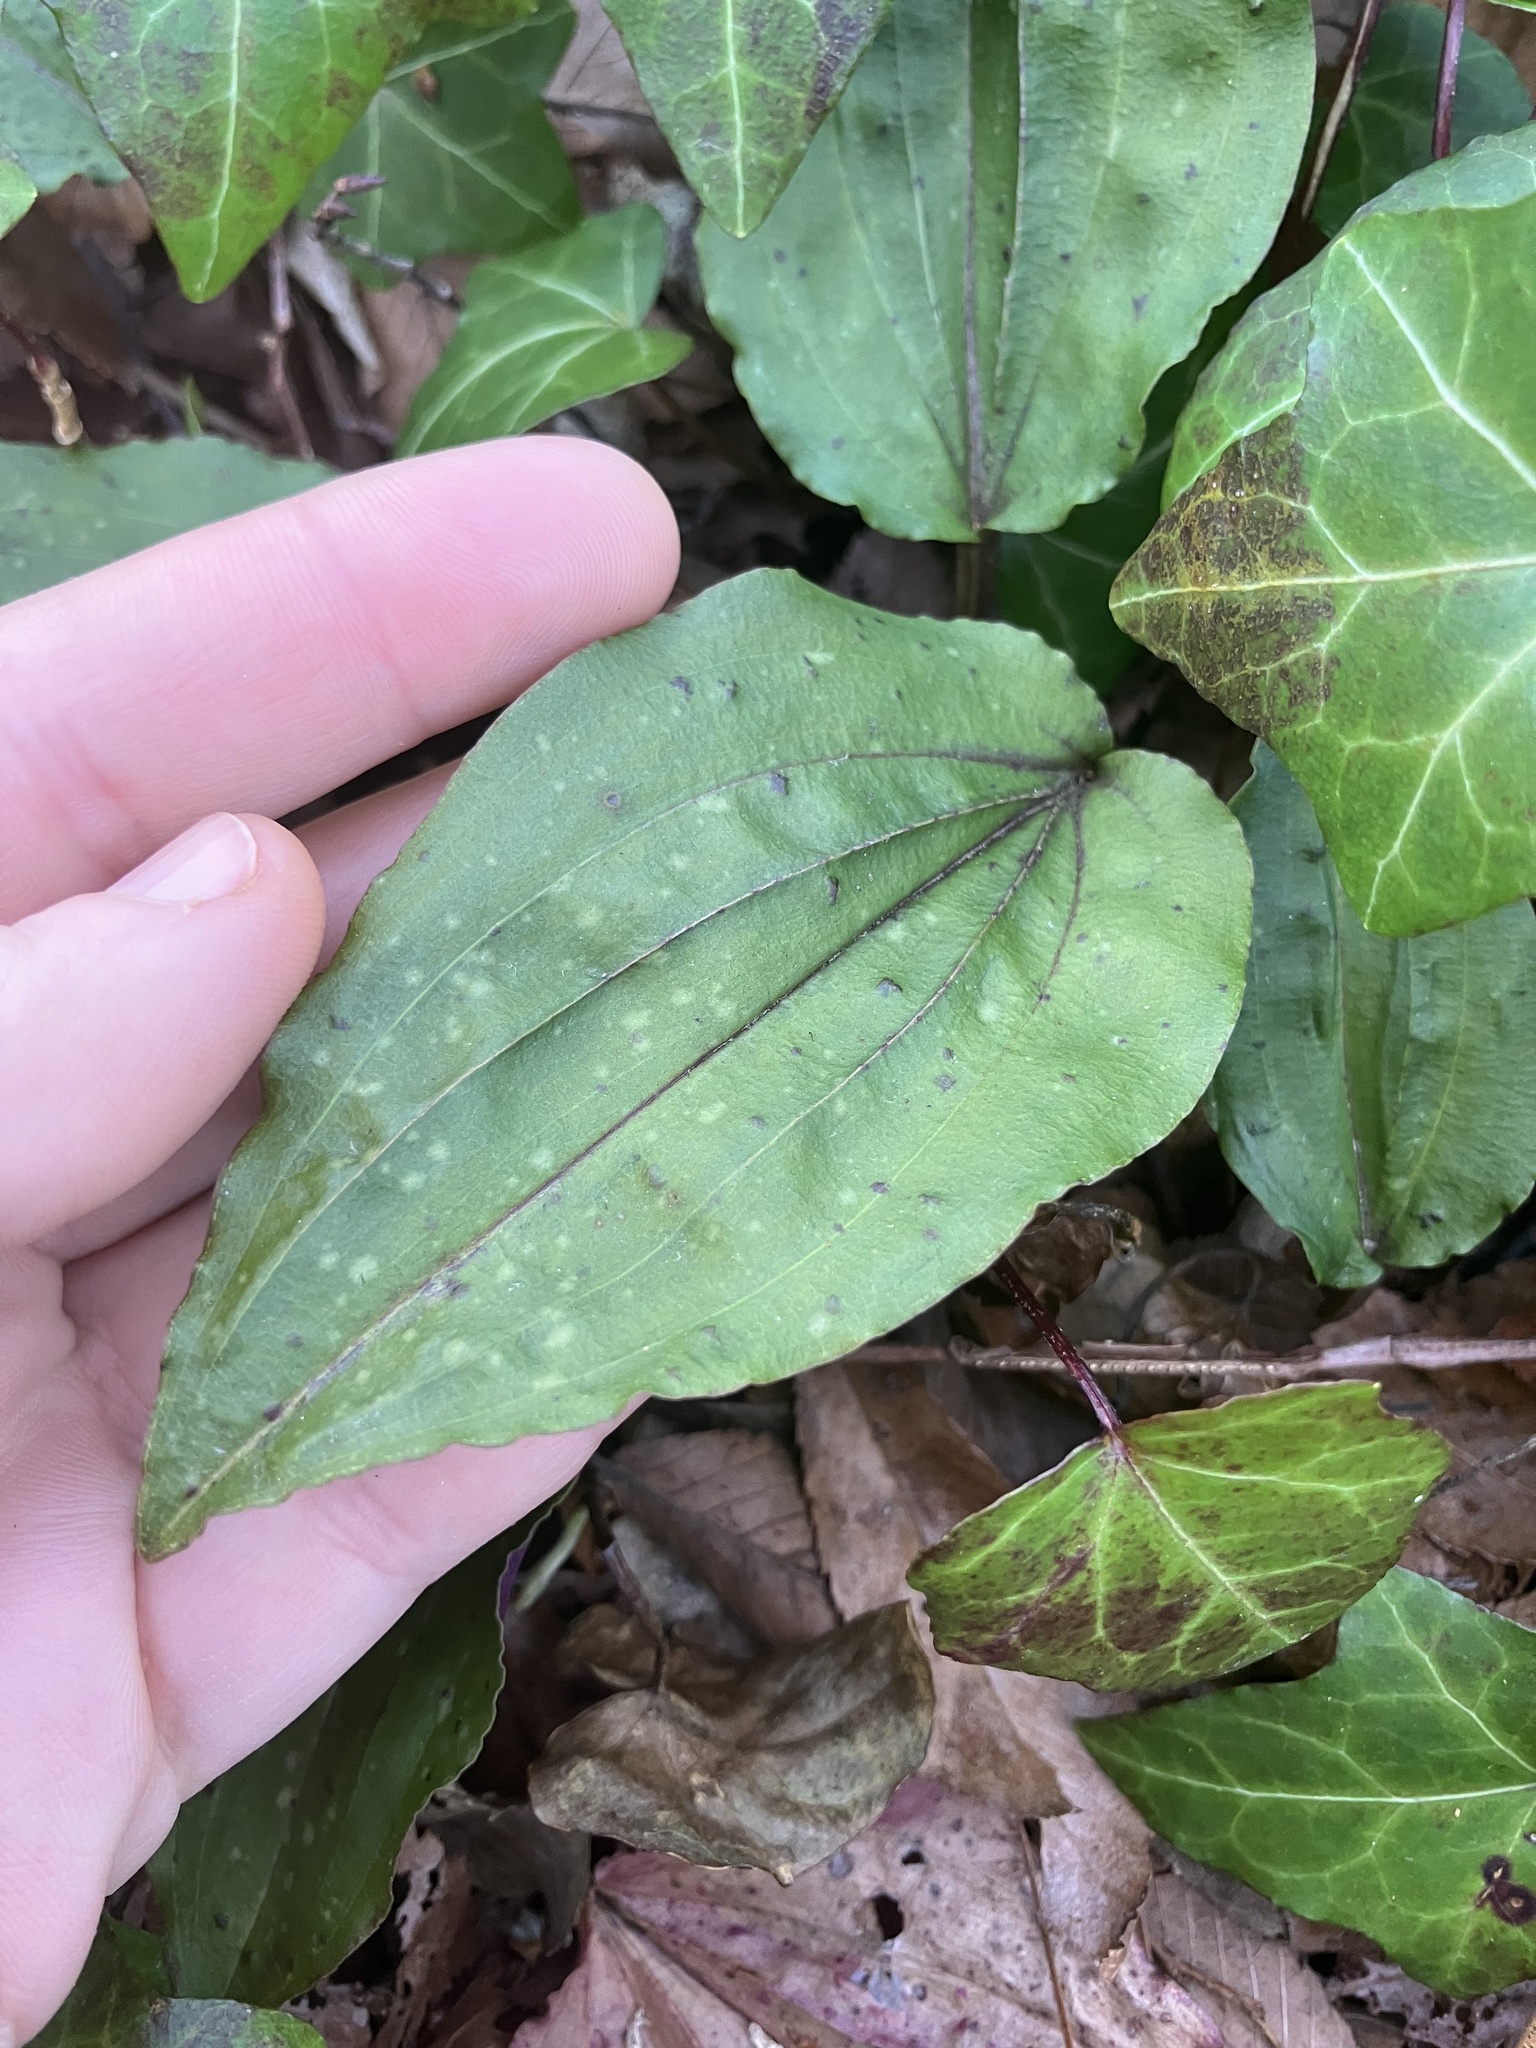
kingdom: Plantae
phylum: Tracheophyta
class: Liliopsida
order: Asparagales
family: Orchidaceae
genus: Tipularia
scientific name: Tipularia discolor
